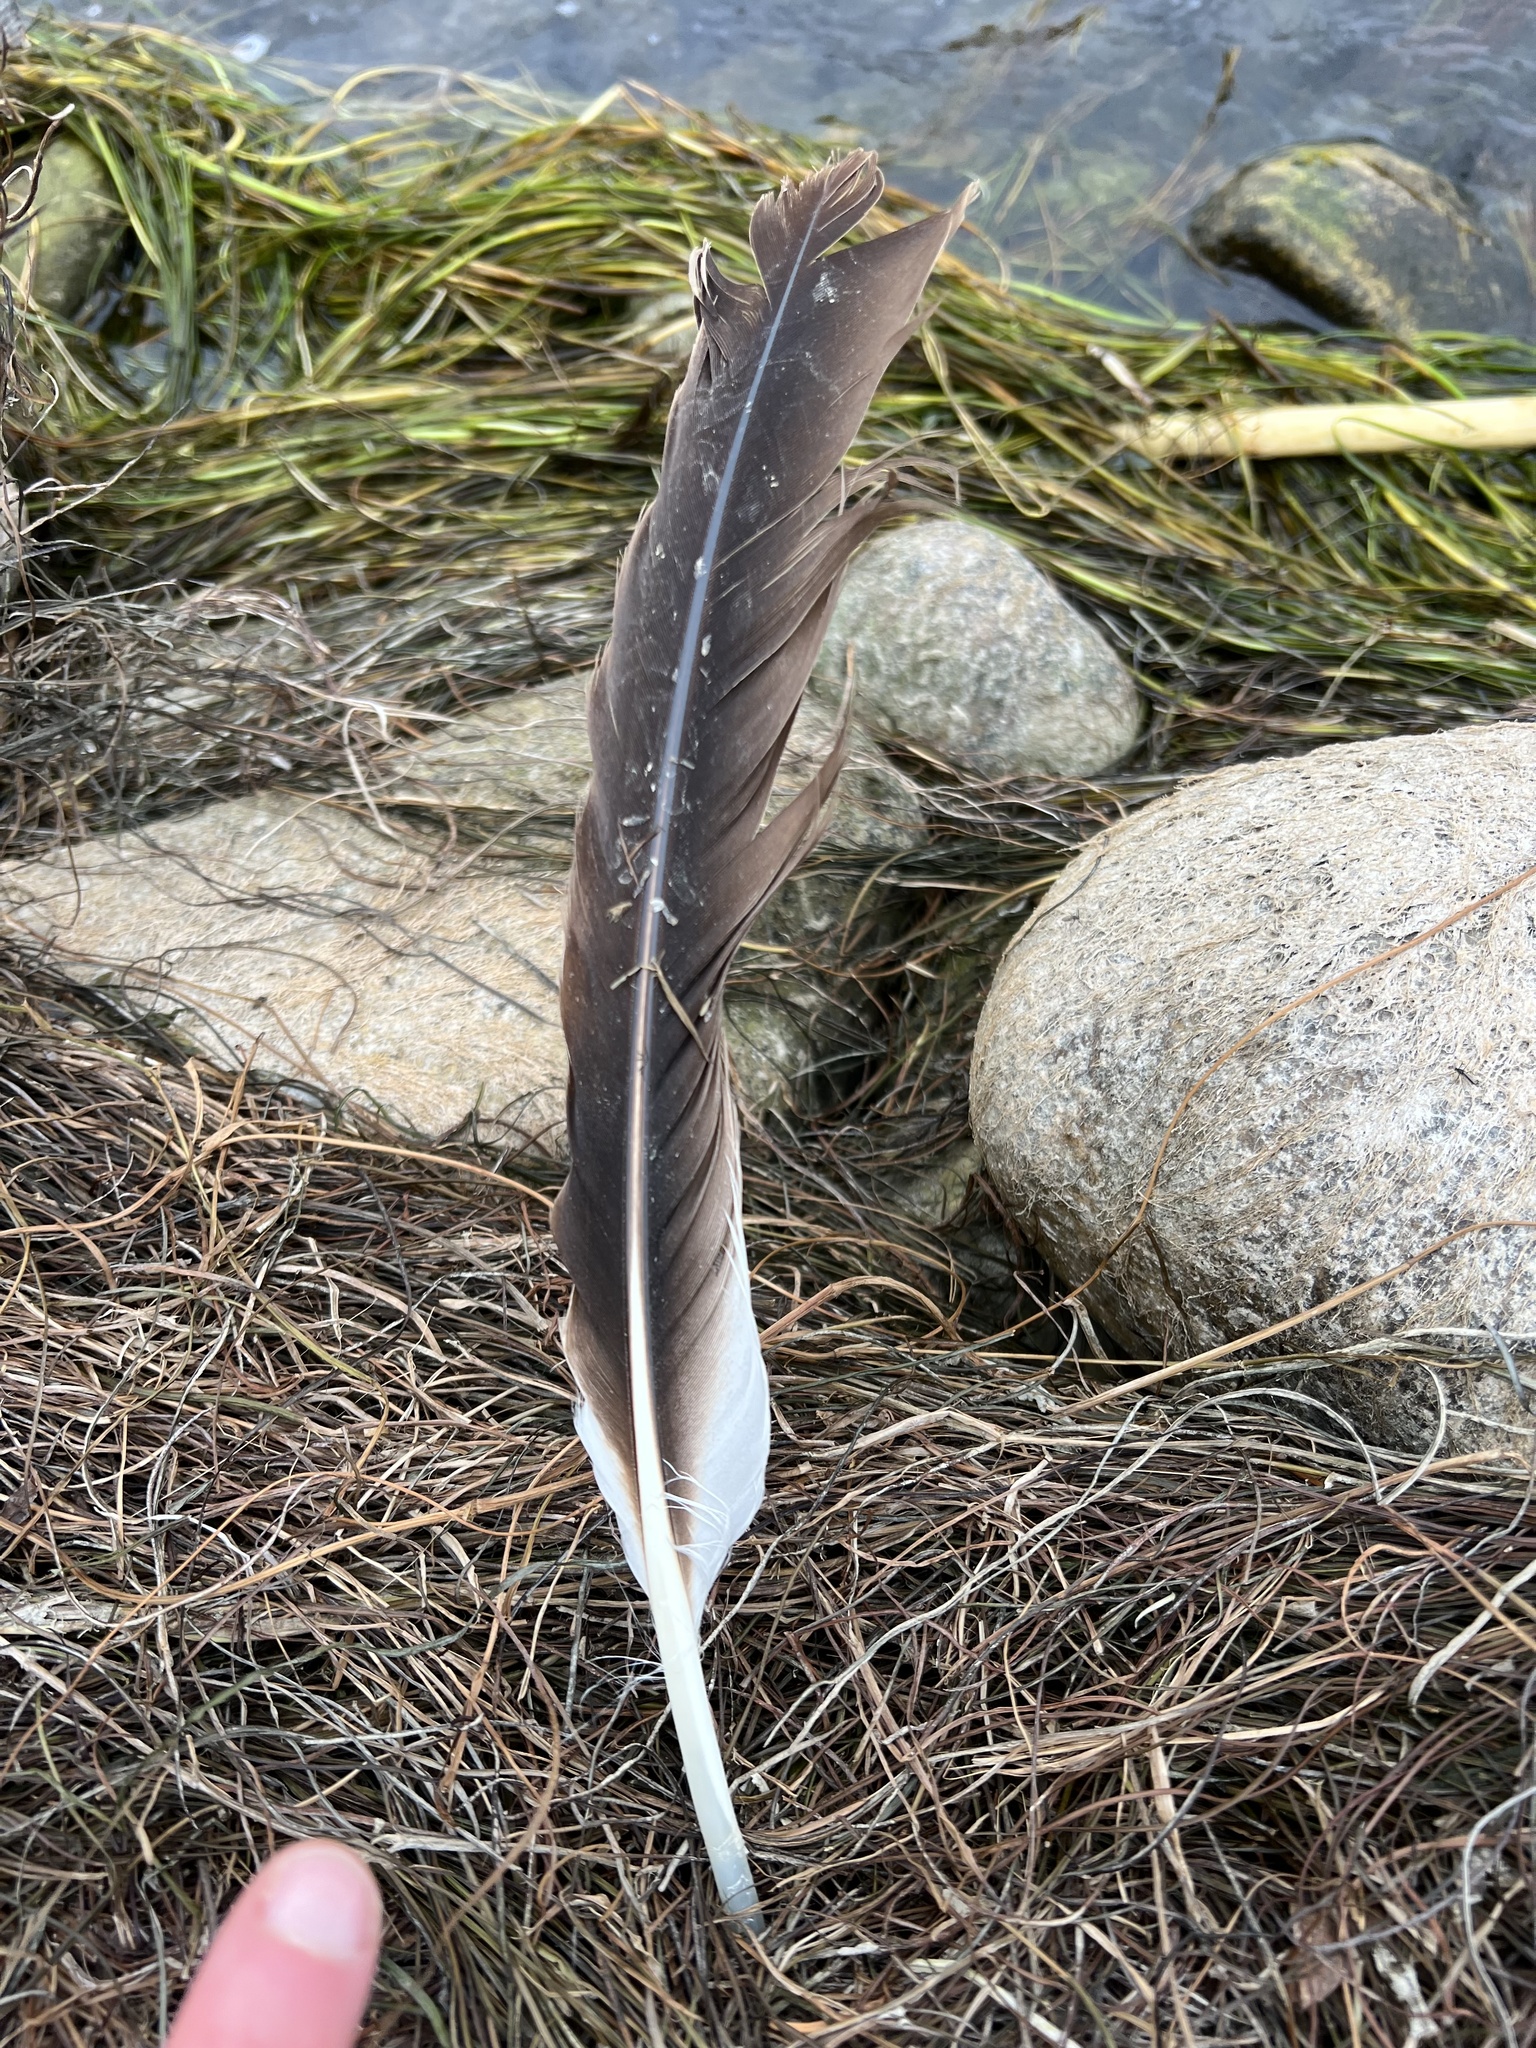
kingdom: Animalia
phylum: Chordata
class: Aves
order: Pelecaniformes
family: Pelecanidae
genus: Pelecanus
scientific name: Pelecanus erythrorhynchos
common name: American white pelican
